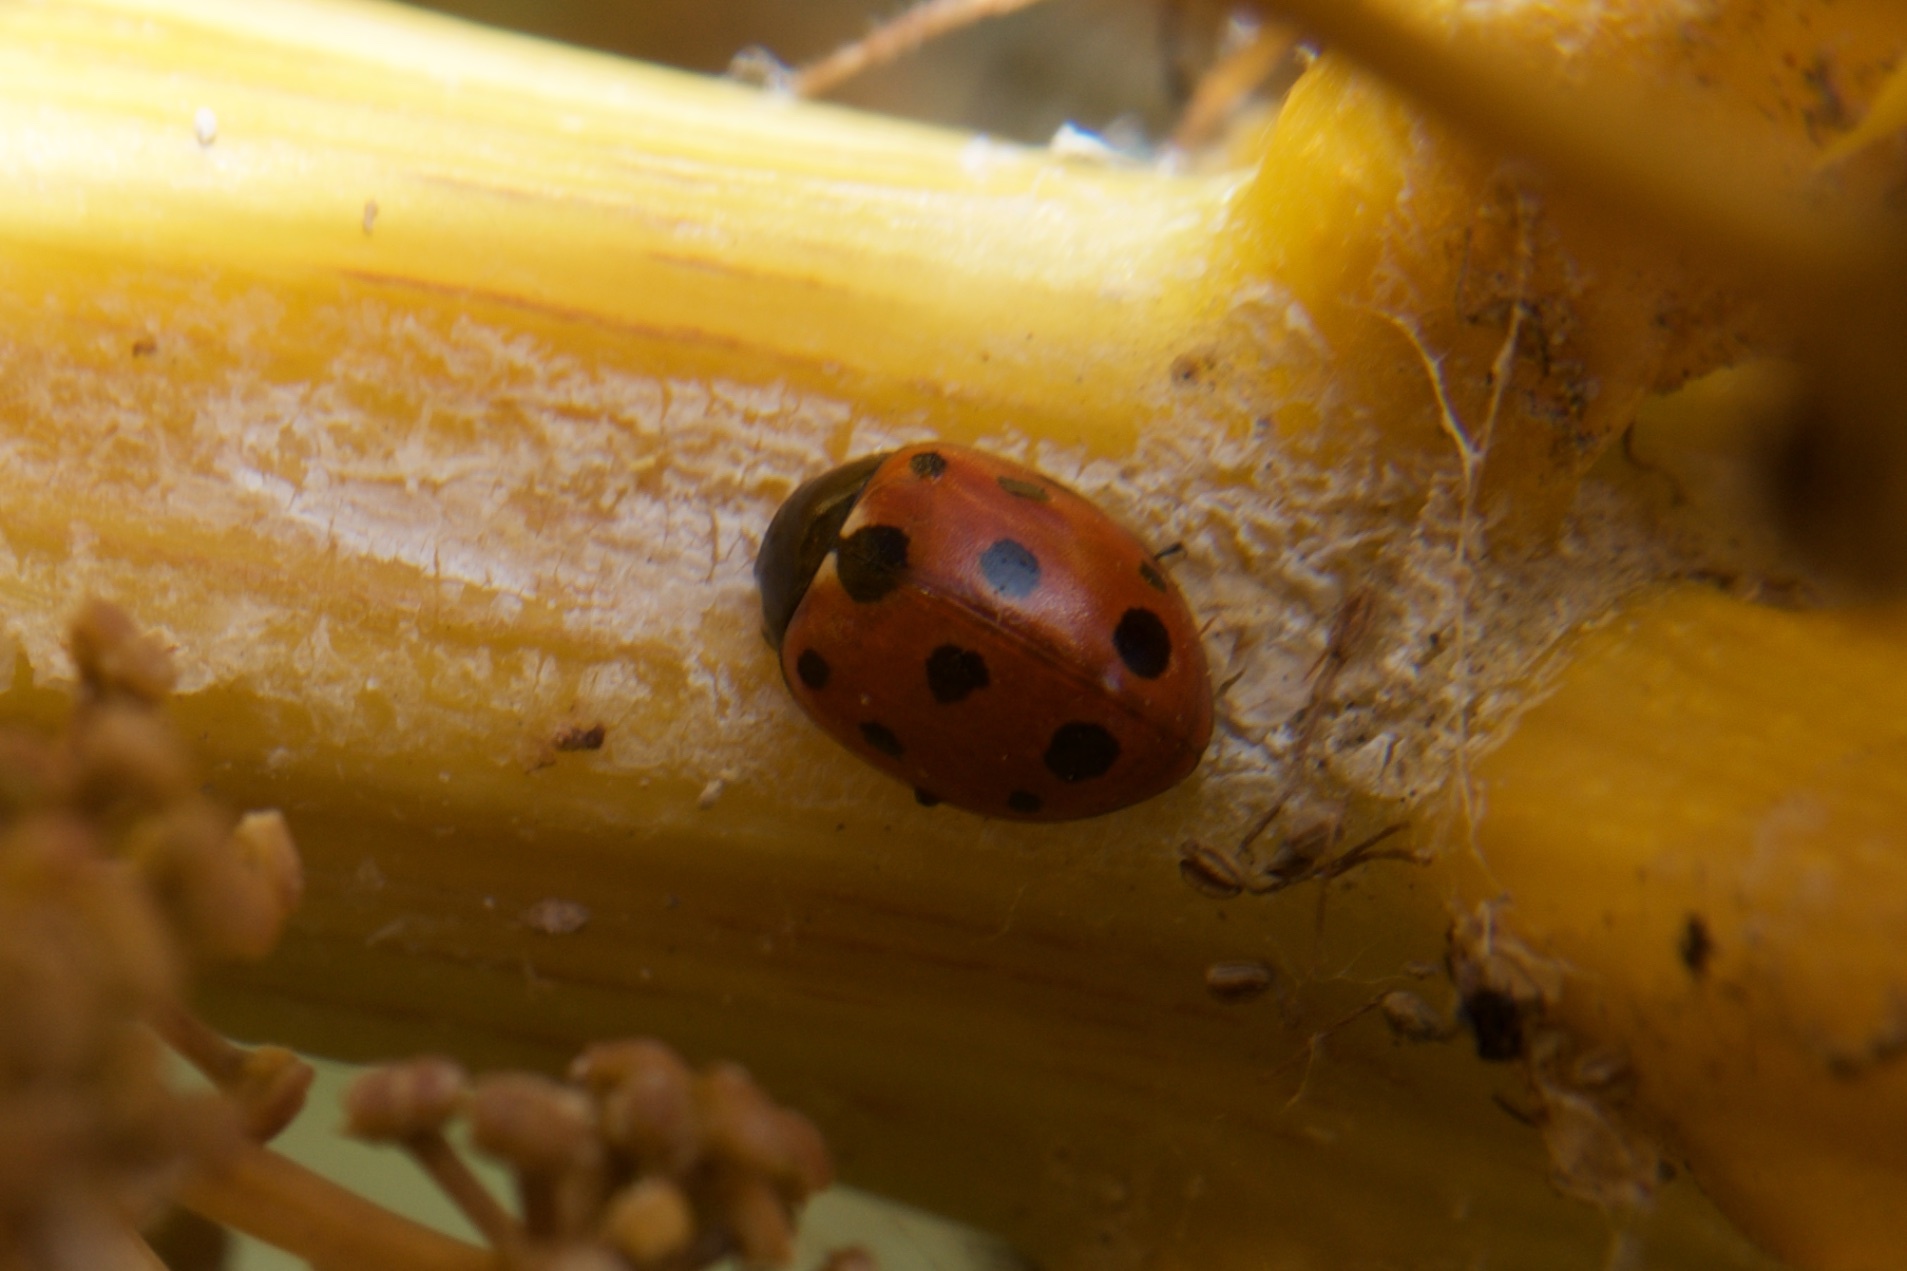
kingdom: Animalia
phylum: Arthropoda
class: Insecta
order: Coleoptera
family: Coccinellidae
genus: Coccinella
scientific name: Coccinella undecimpunctata
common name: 11-spot ladybird
